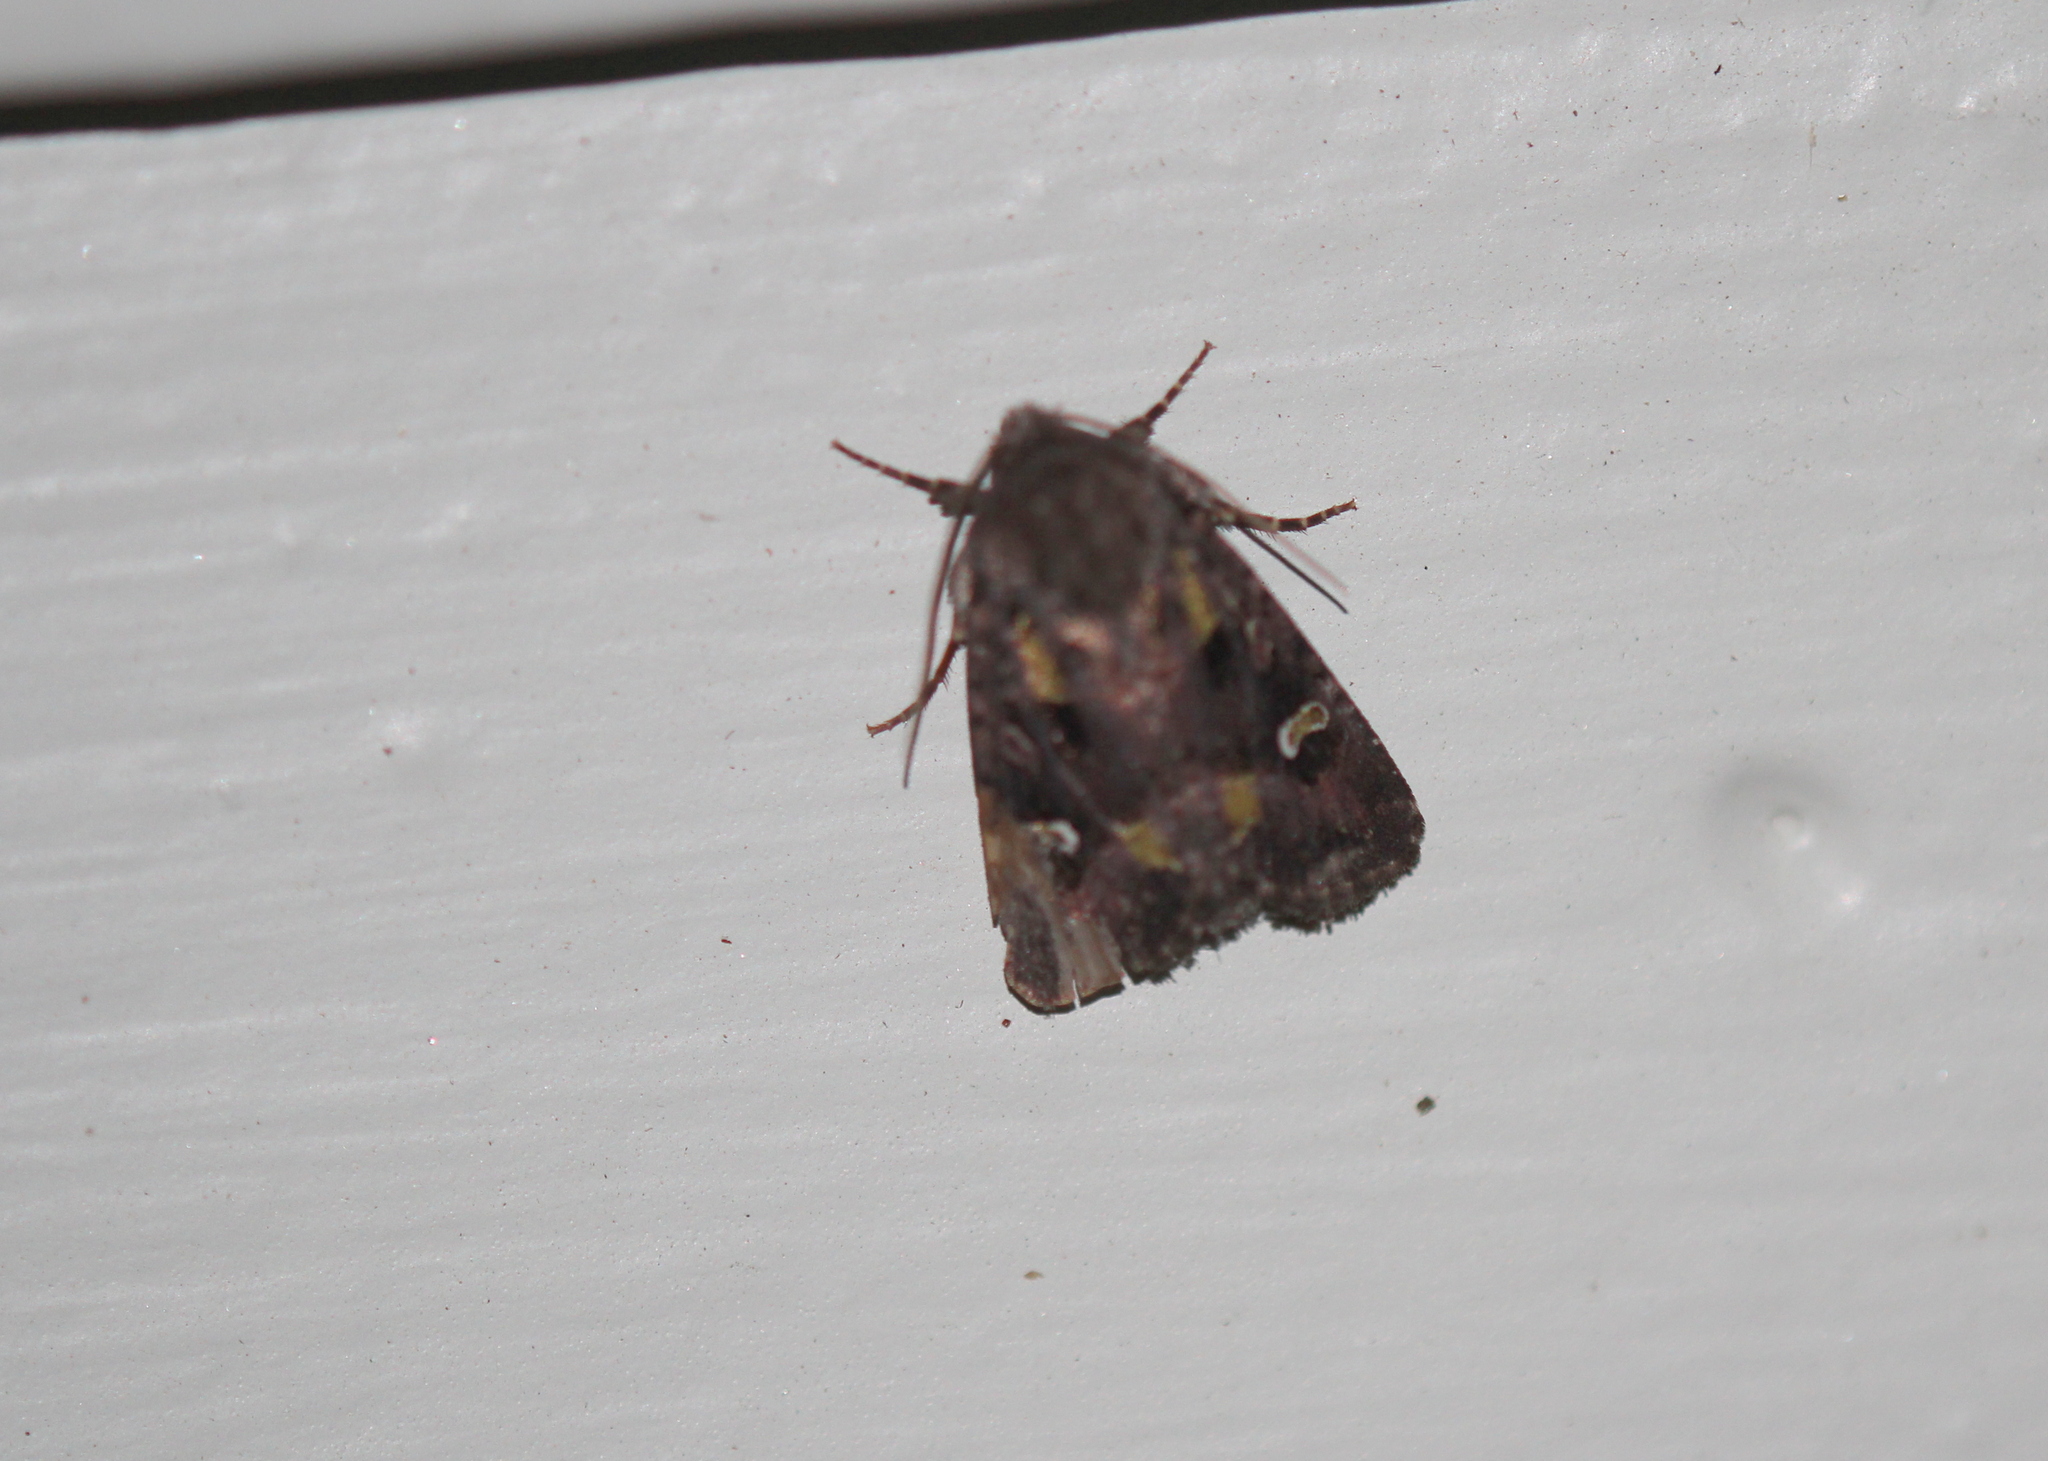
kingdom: Animalia
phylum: Arthropoda
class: Insecta
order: Lepidoptera
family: Noctuidae
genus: Lacinipolia
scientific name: Lacinipolia renigera
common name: Kidney-spotted minor
